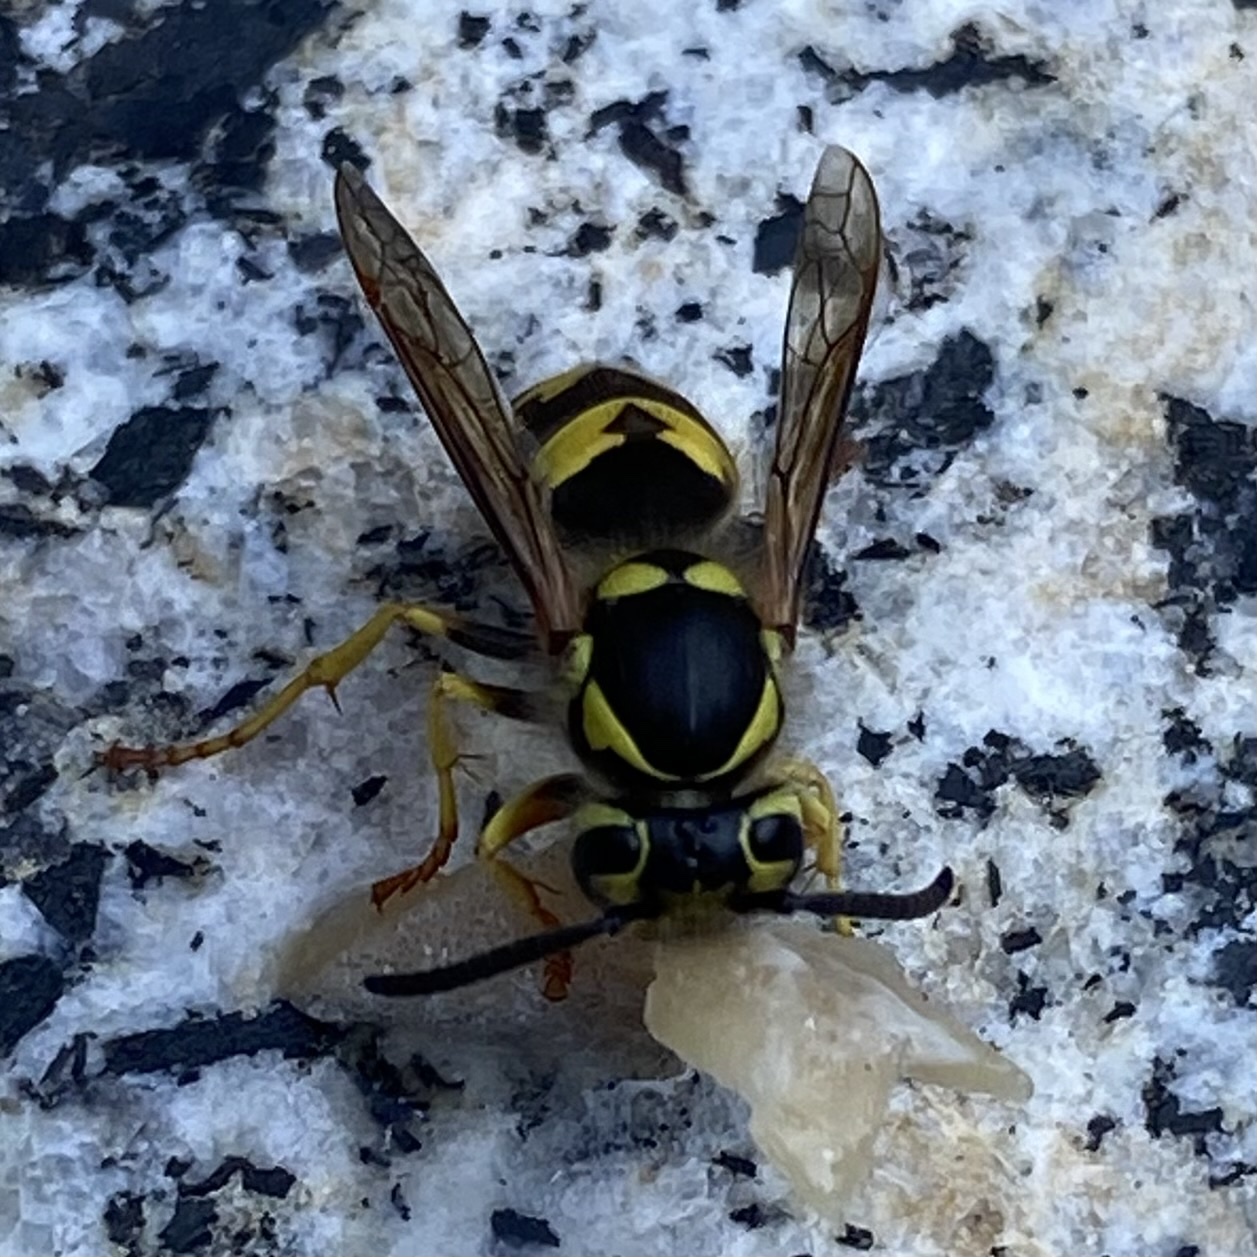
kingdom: Animalia
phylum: Arthropoda
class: Insecta
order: Hymenoptera
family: Vespidae
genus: Vespula
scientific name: Vespula pensylvanica
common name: Western yellowjacket
